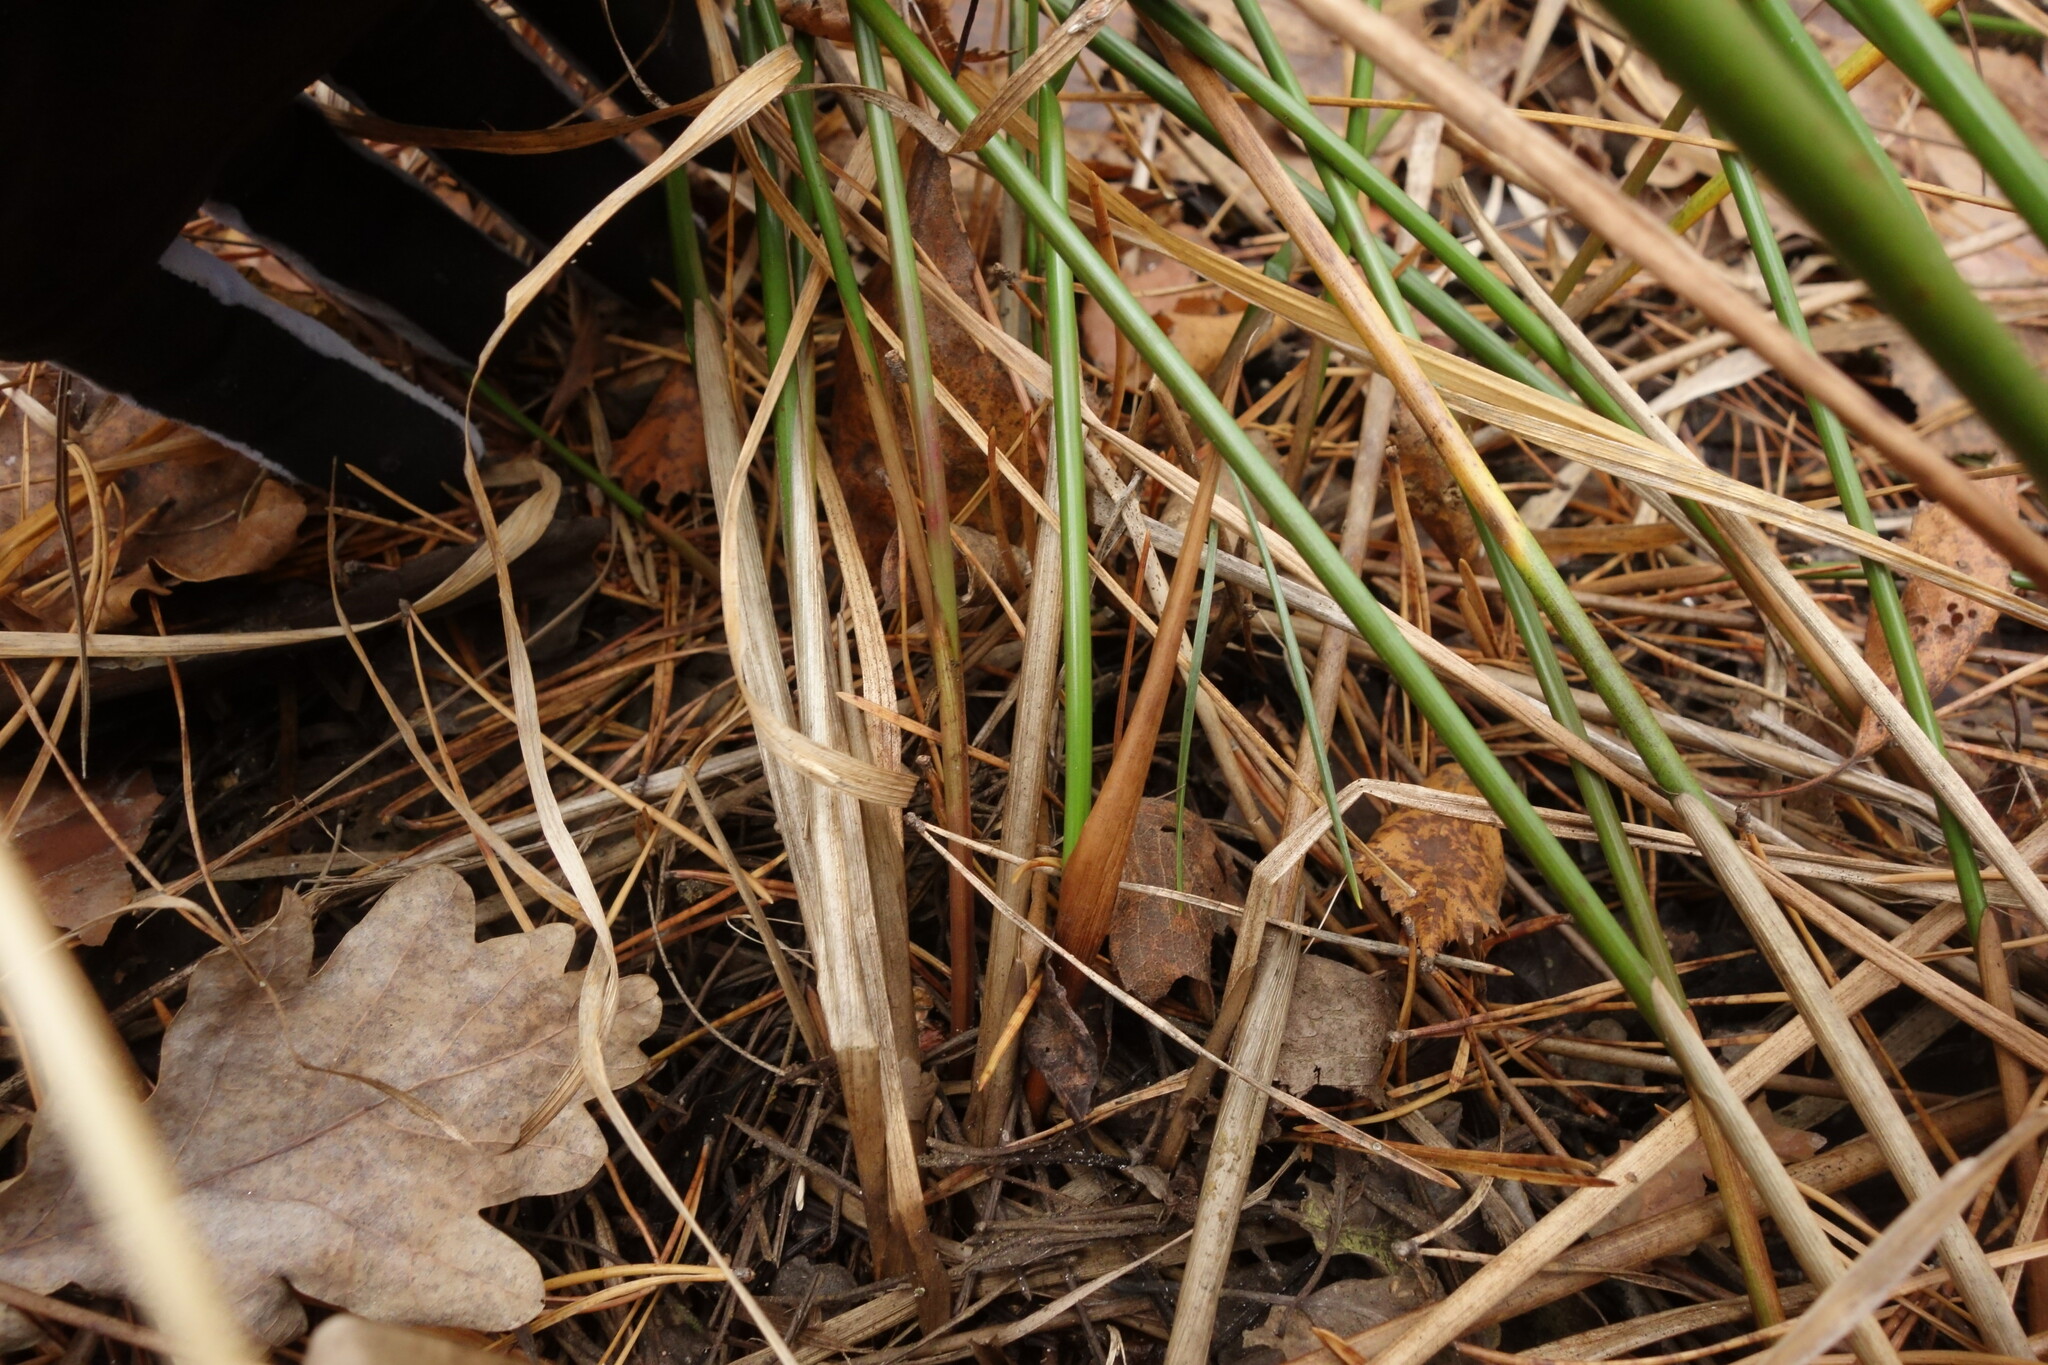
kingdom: Plantae
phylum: Tracheophyta
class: Liliopsida
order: Poales
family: Juncaceae
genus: Juncus
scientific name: Juncus effusus
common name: Soft rush
